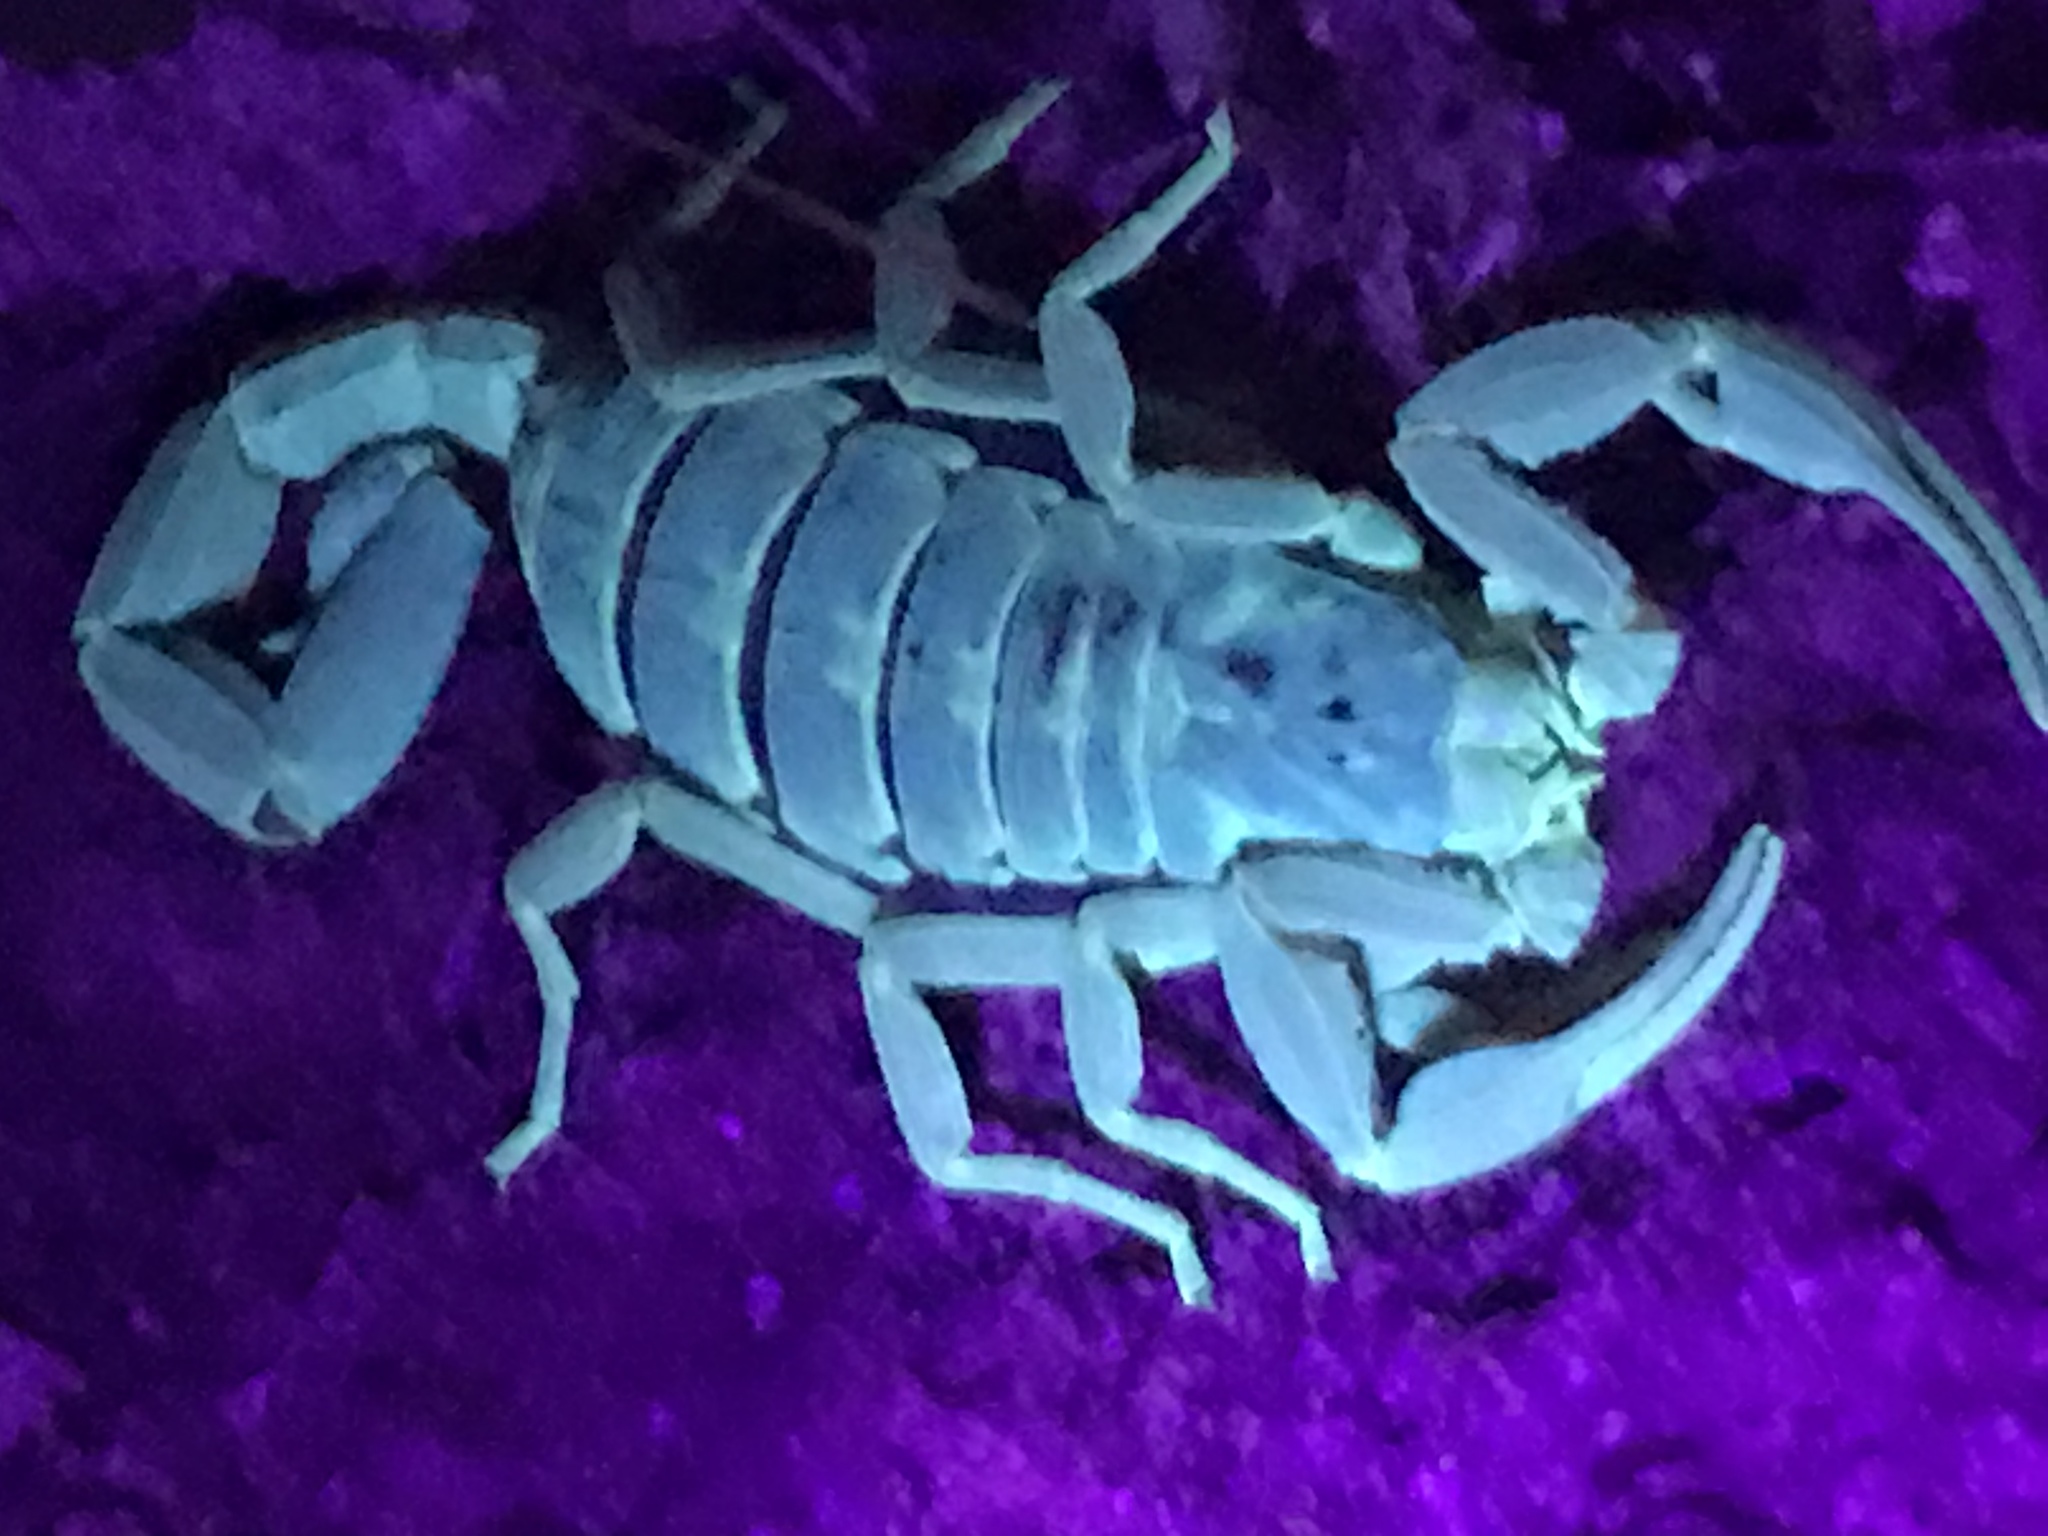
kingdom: Animalia
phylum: Arthropoda
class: Arachnida
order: Scorpiones
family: Buthidae
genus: Centruroides
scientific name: Centruroides vittatus
